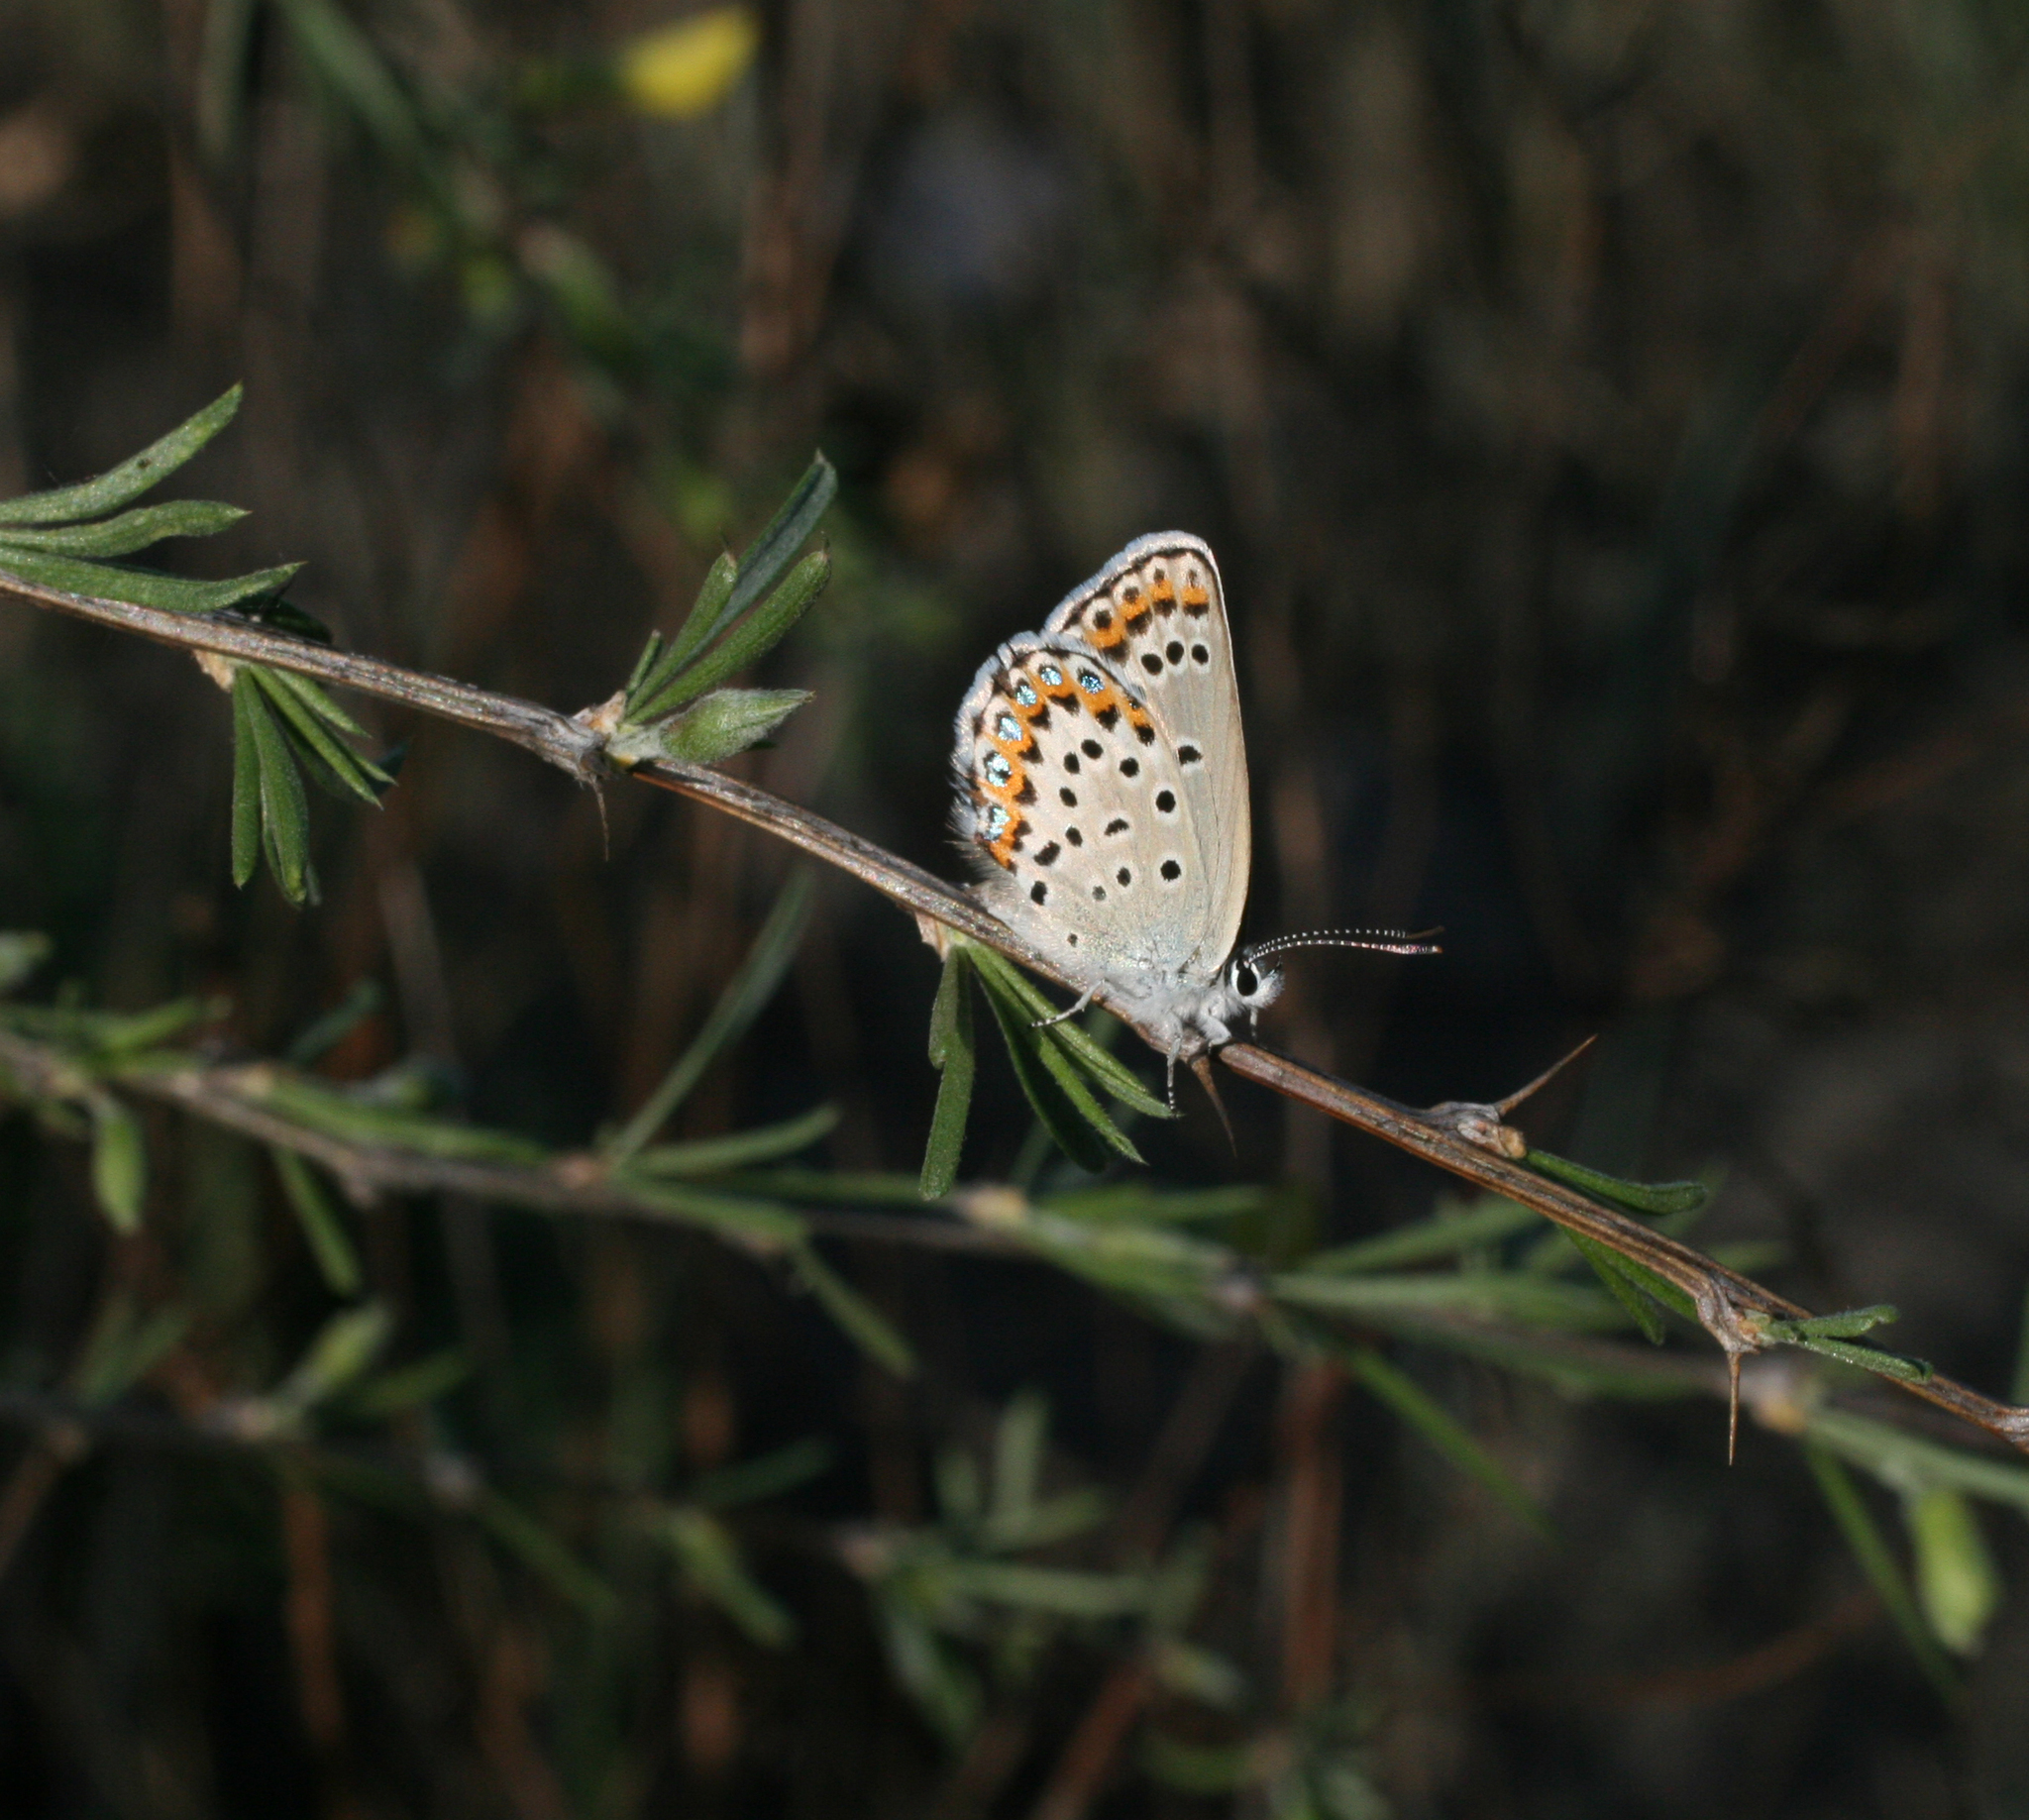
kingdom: Plantae
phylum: Tracheophyta
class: Magnoliopsida
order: Fabales
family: Fabaceae
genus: Caragana
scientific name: Caragana pygmaea
